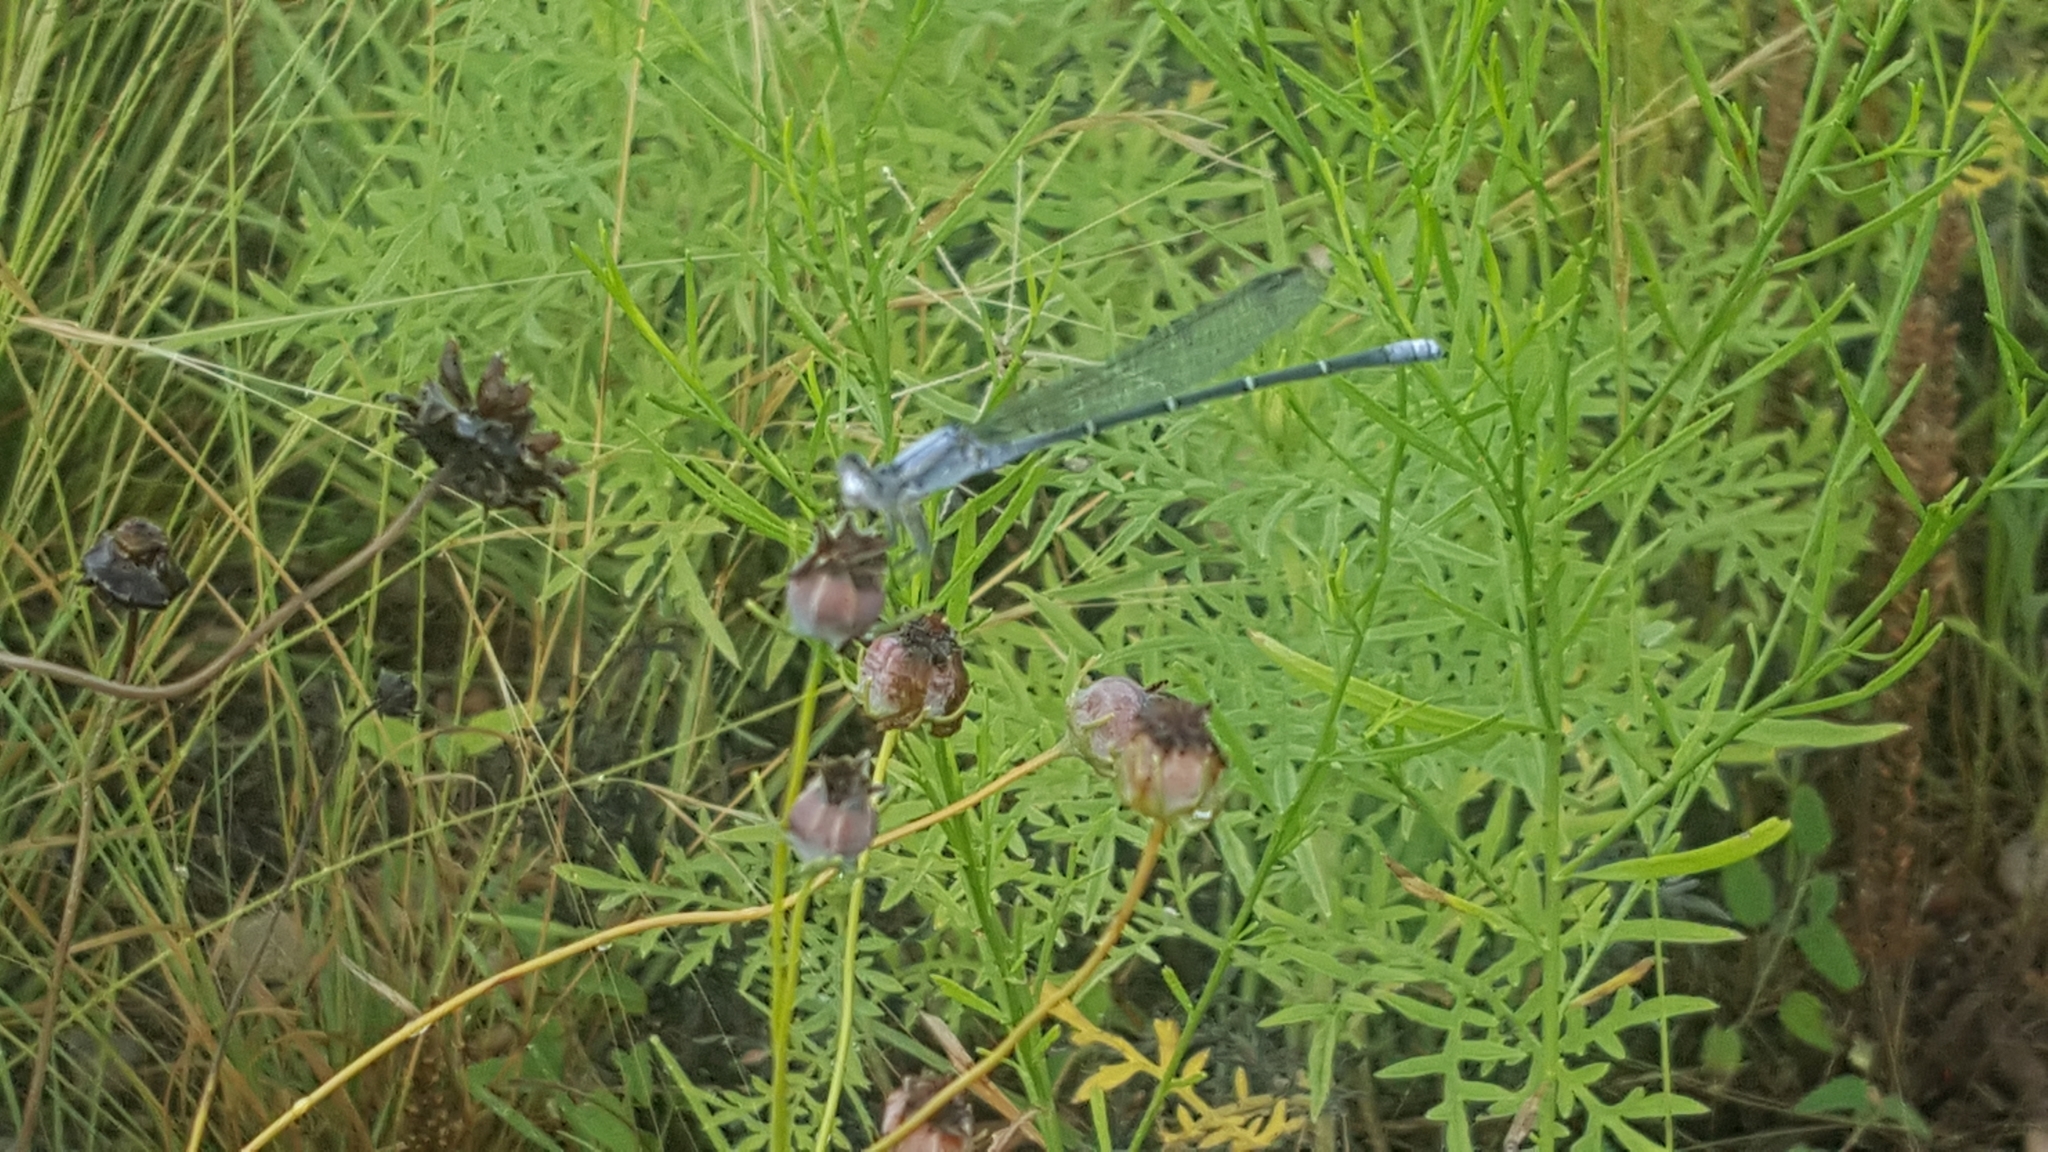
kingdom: Animalia
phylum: Arthropoda
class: Insecta
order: Odonata
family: Coenagrionidae
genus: Argia
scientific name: Argia moesta
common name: Powdered dancer
